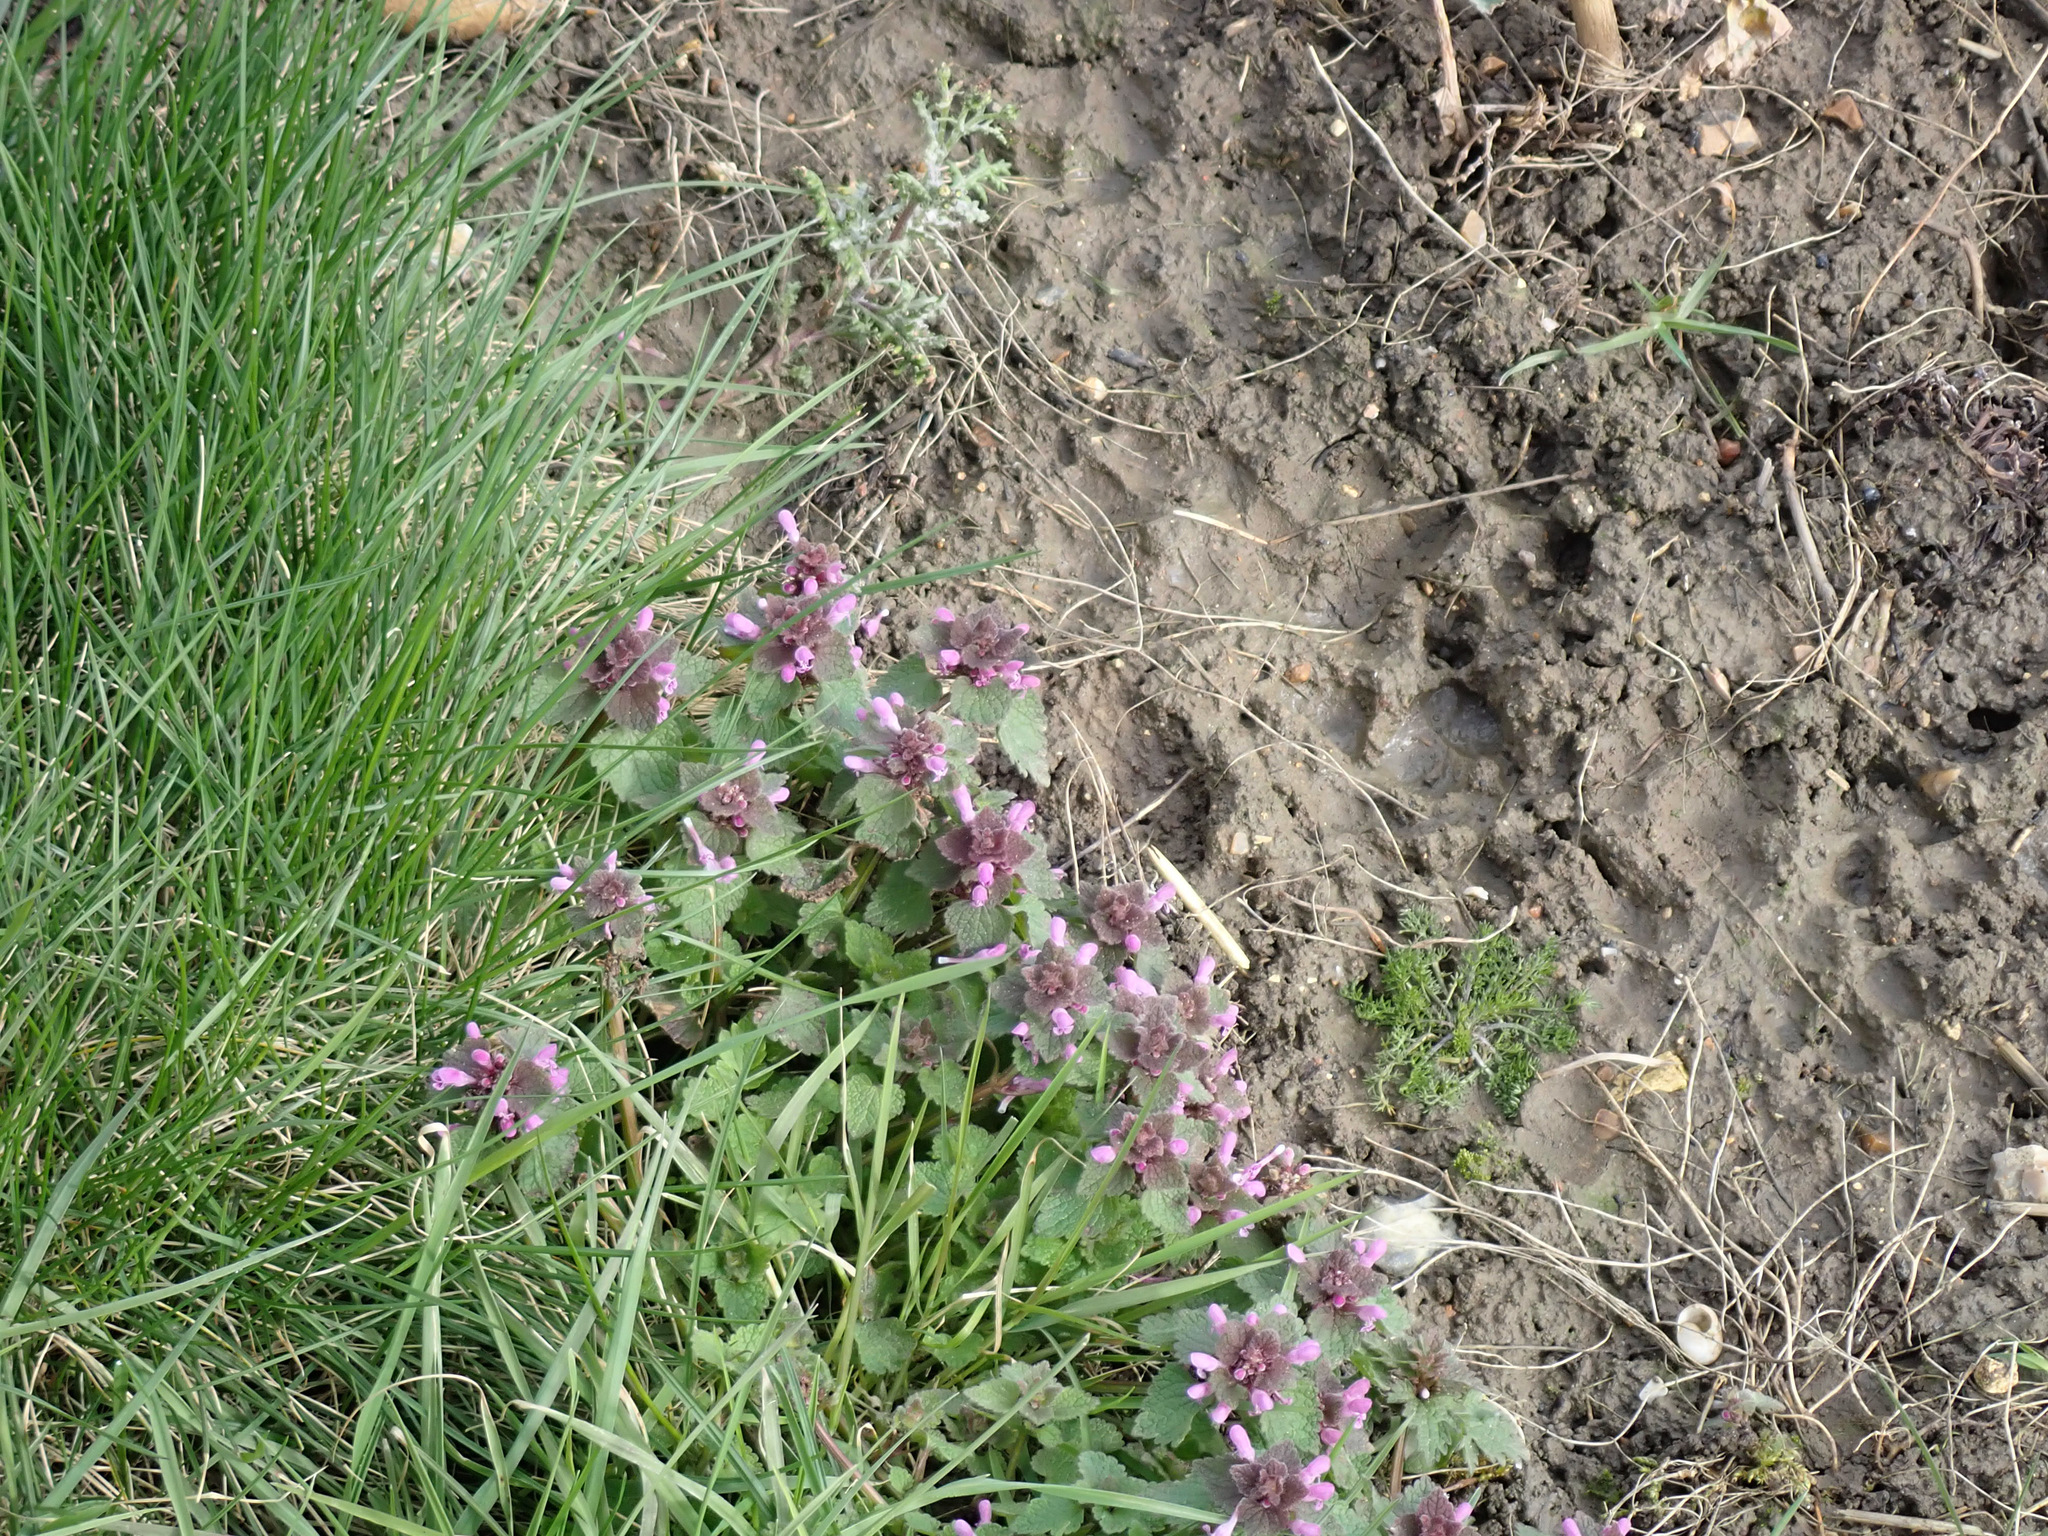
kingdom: Plantae
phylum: Tracheophyta
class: Magnoliopsida
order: Lamiales
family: Lamiaceae
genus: Lamium
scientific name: Lamium purpureum
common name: Red dead-nettle
